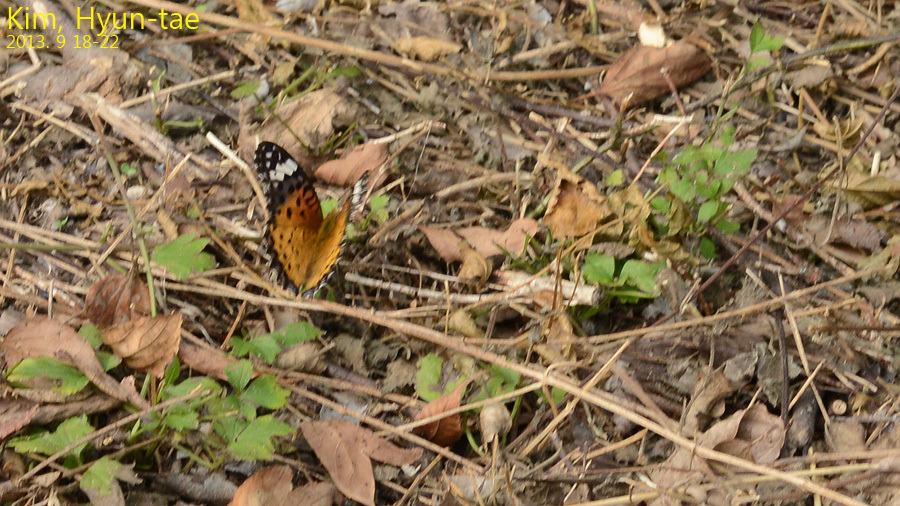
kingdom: Animalia
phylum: Arthropoda
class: Insecta
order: Lepidoptera
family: Nymphalidae
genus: Argynnis
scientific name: Argynnis hyperbius
